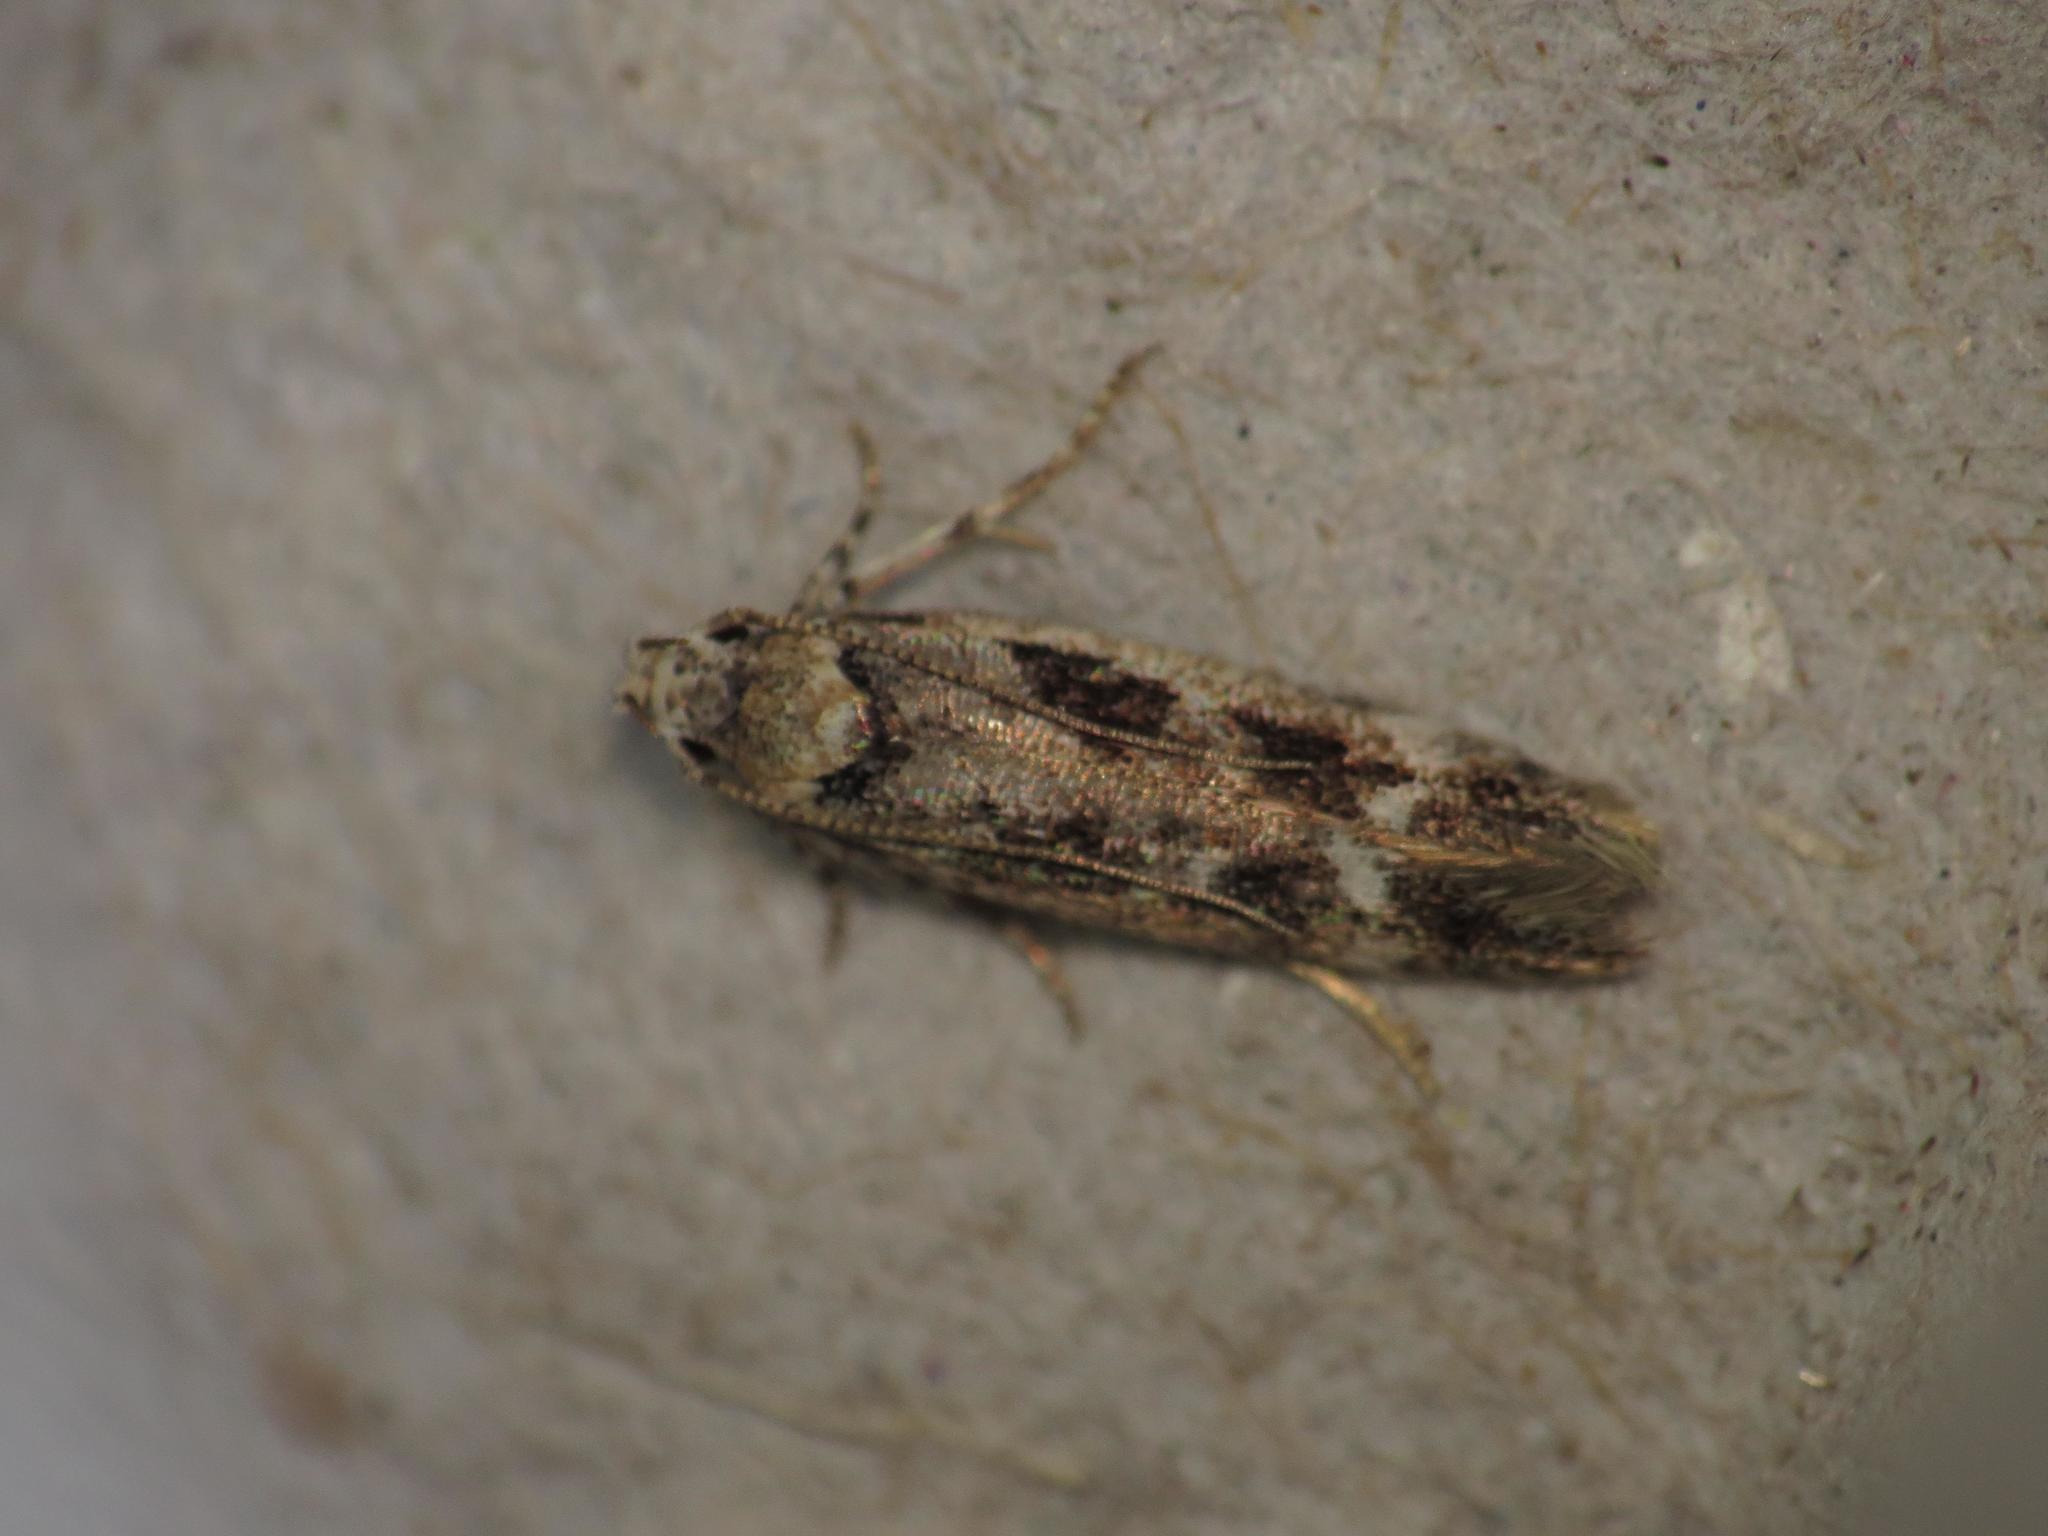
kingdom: Animalia
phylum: Arthropoda
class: Insecta
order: Lepidoptera
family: Gelechiidae
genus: Caryocolum
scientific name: Caryocolum fischerella
